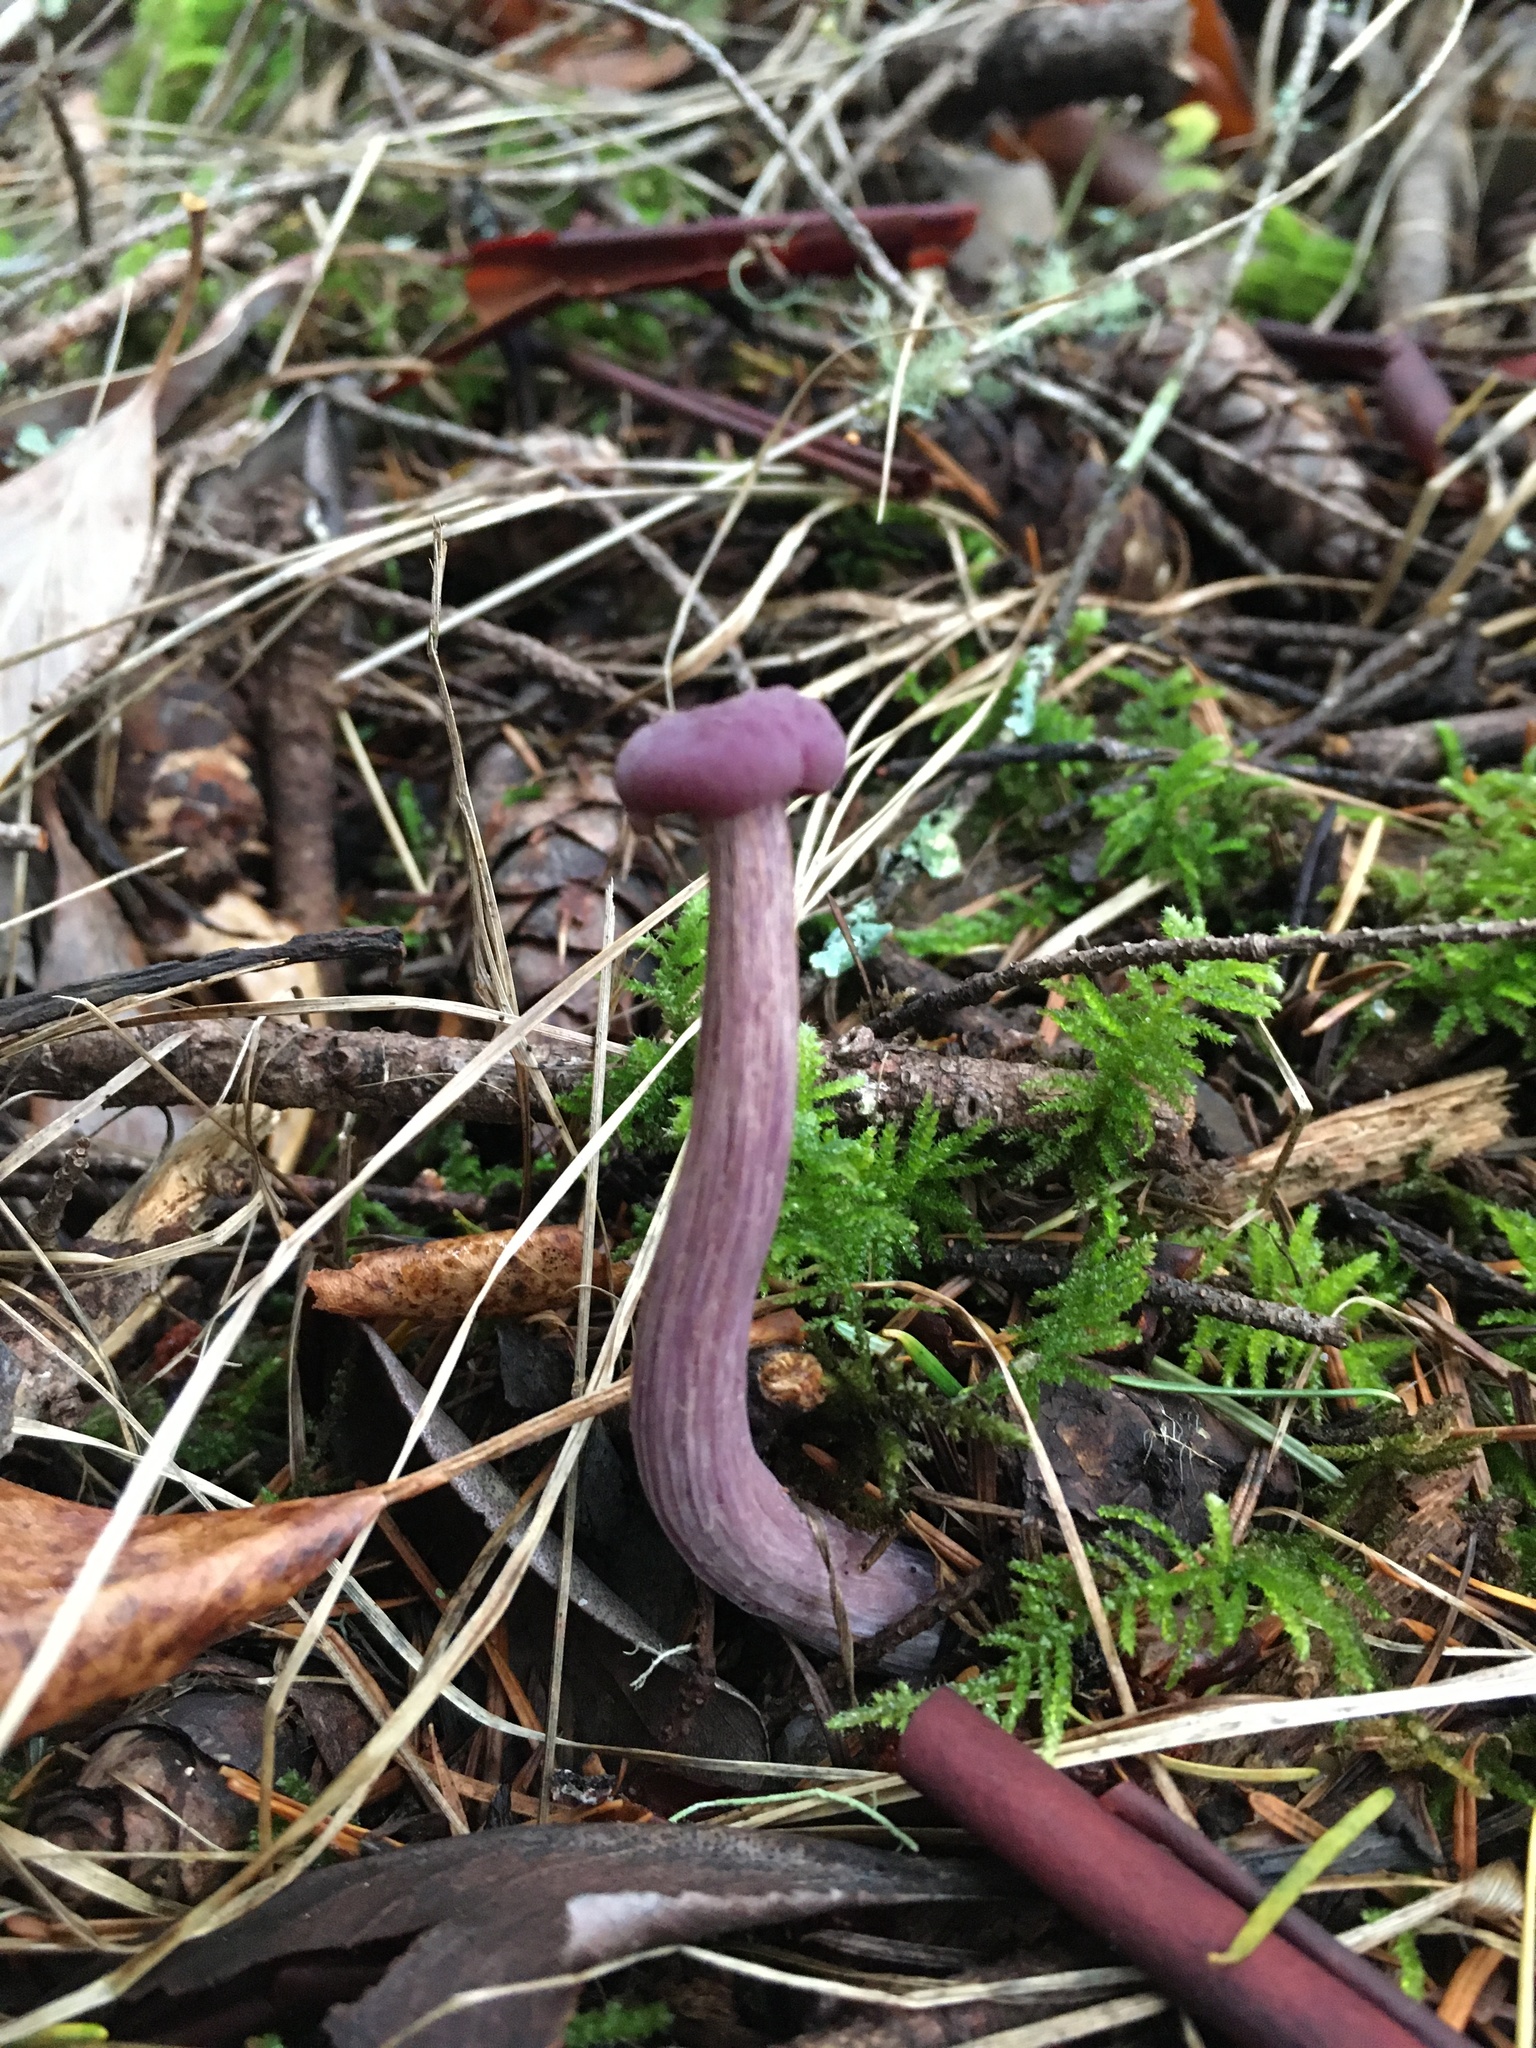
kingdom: Fungi
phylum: Basidiomycota
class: Agaricomycetes
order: Agaricales
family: Hydnangiaceae
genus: Laccaria
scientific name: Laccaria amethysteo-occidentalis
